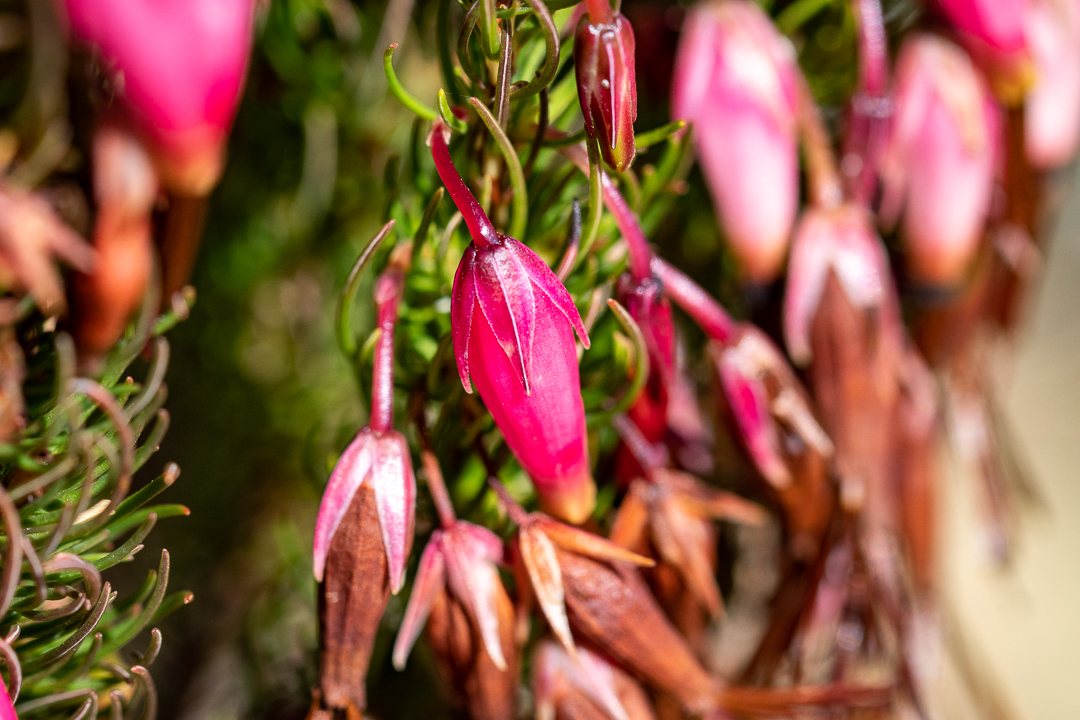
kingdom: Plantae
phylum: Tracheophyta
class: Magnoliopsida
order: Ericales
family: Ericaceae
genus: Erica
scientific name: Erica plukenetii
